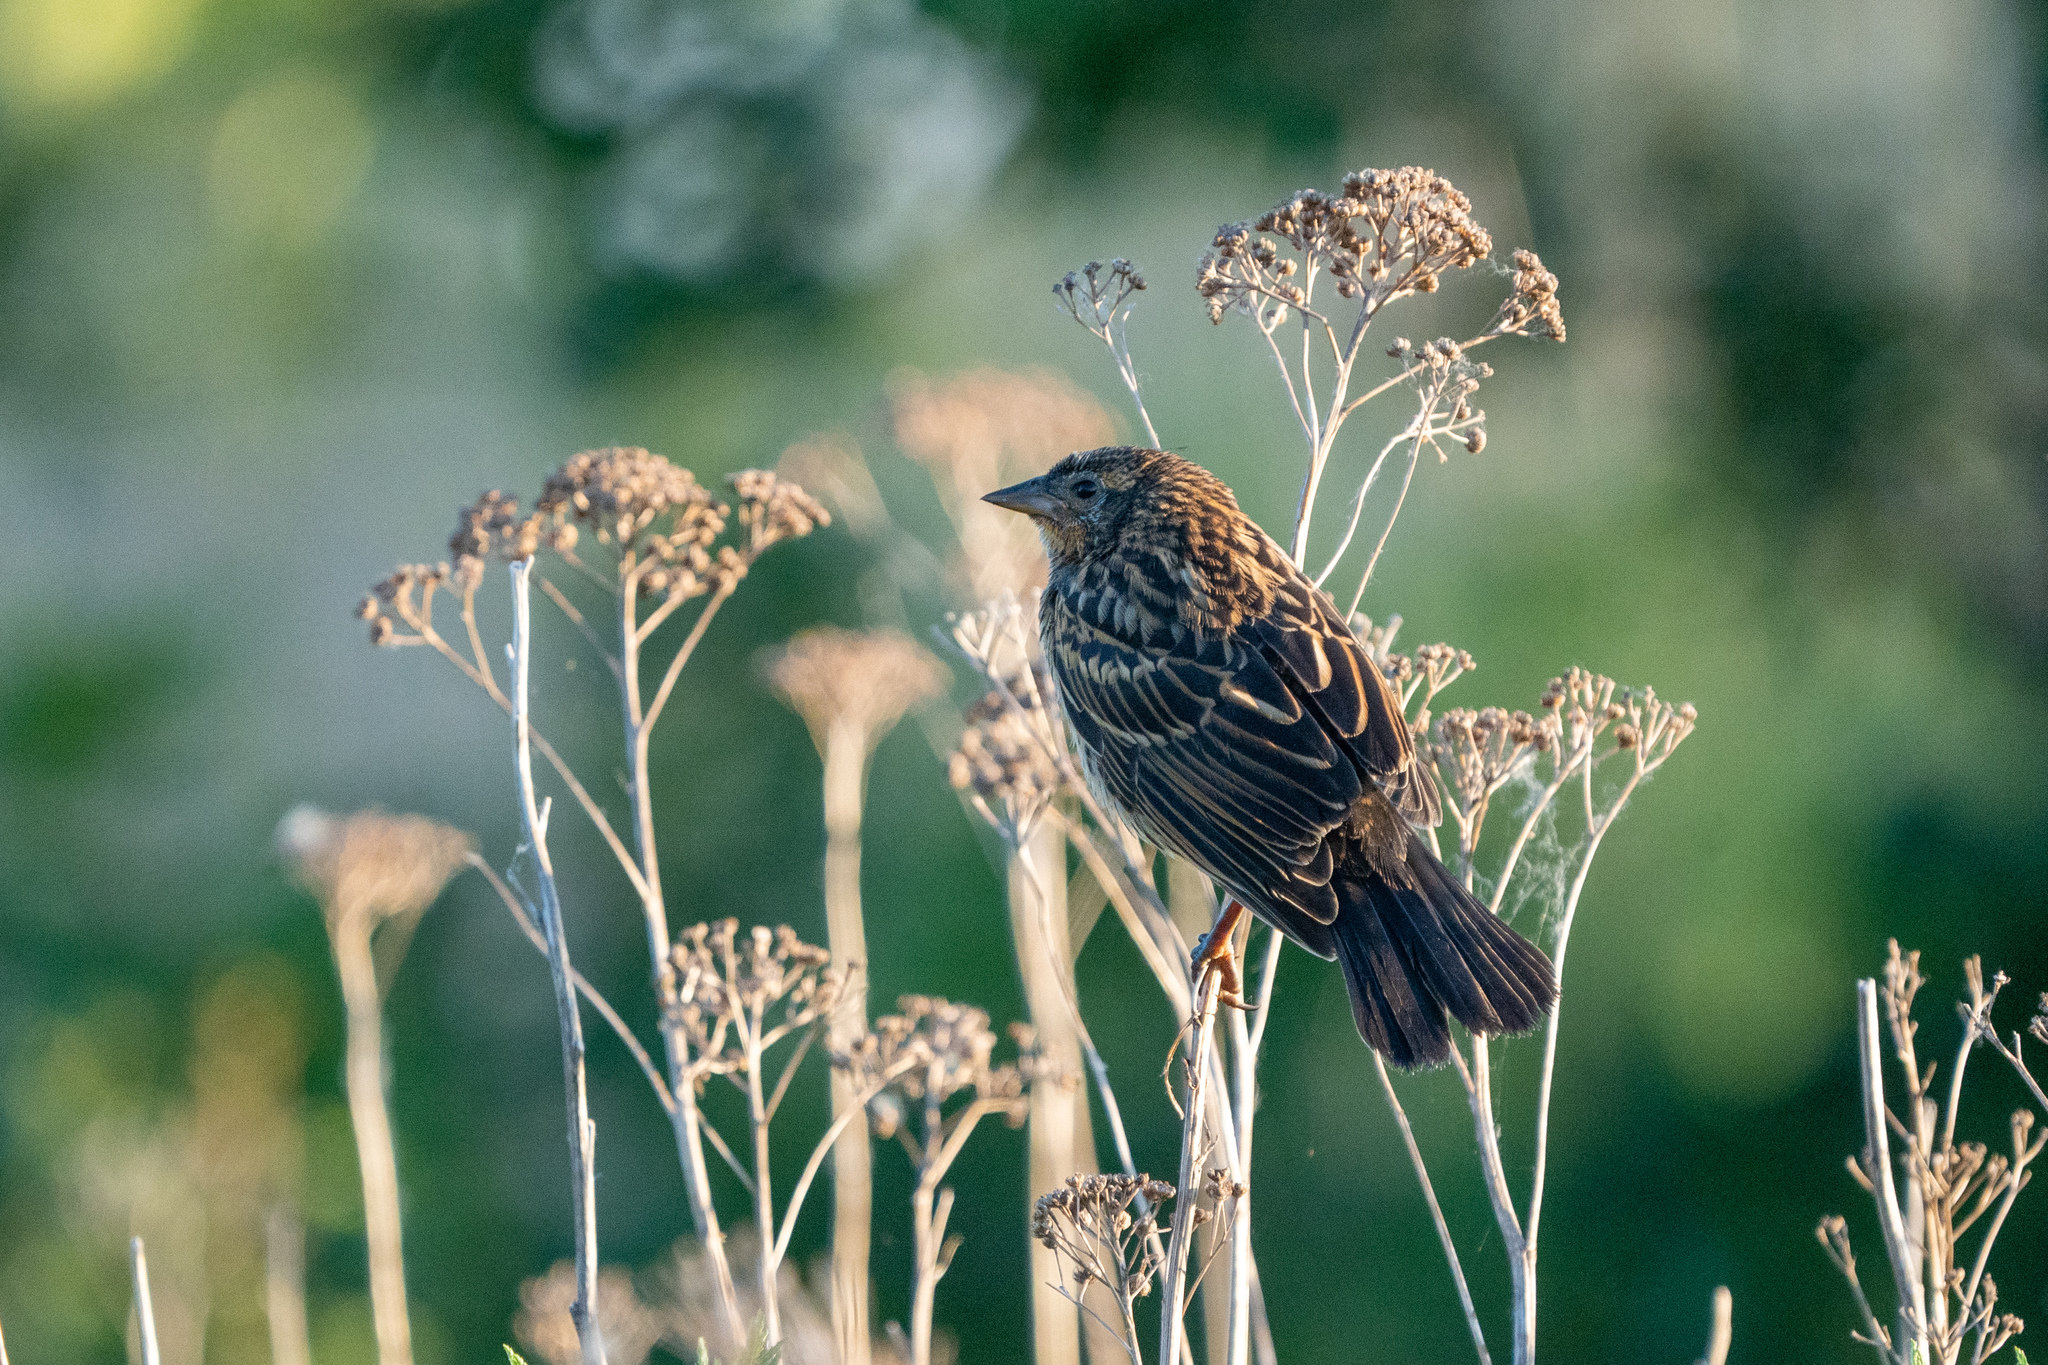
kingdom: Animalia
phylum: Chordata
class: Aves
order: Passeriformes
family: Icteridae
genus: Agelaius
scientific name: Agelaius phoeniceus
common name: Red-winged blackbird
